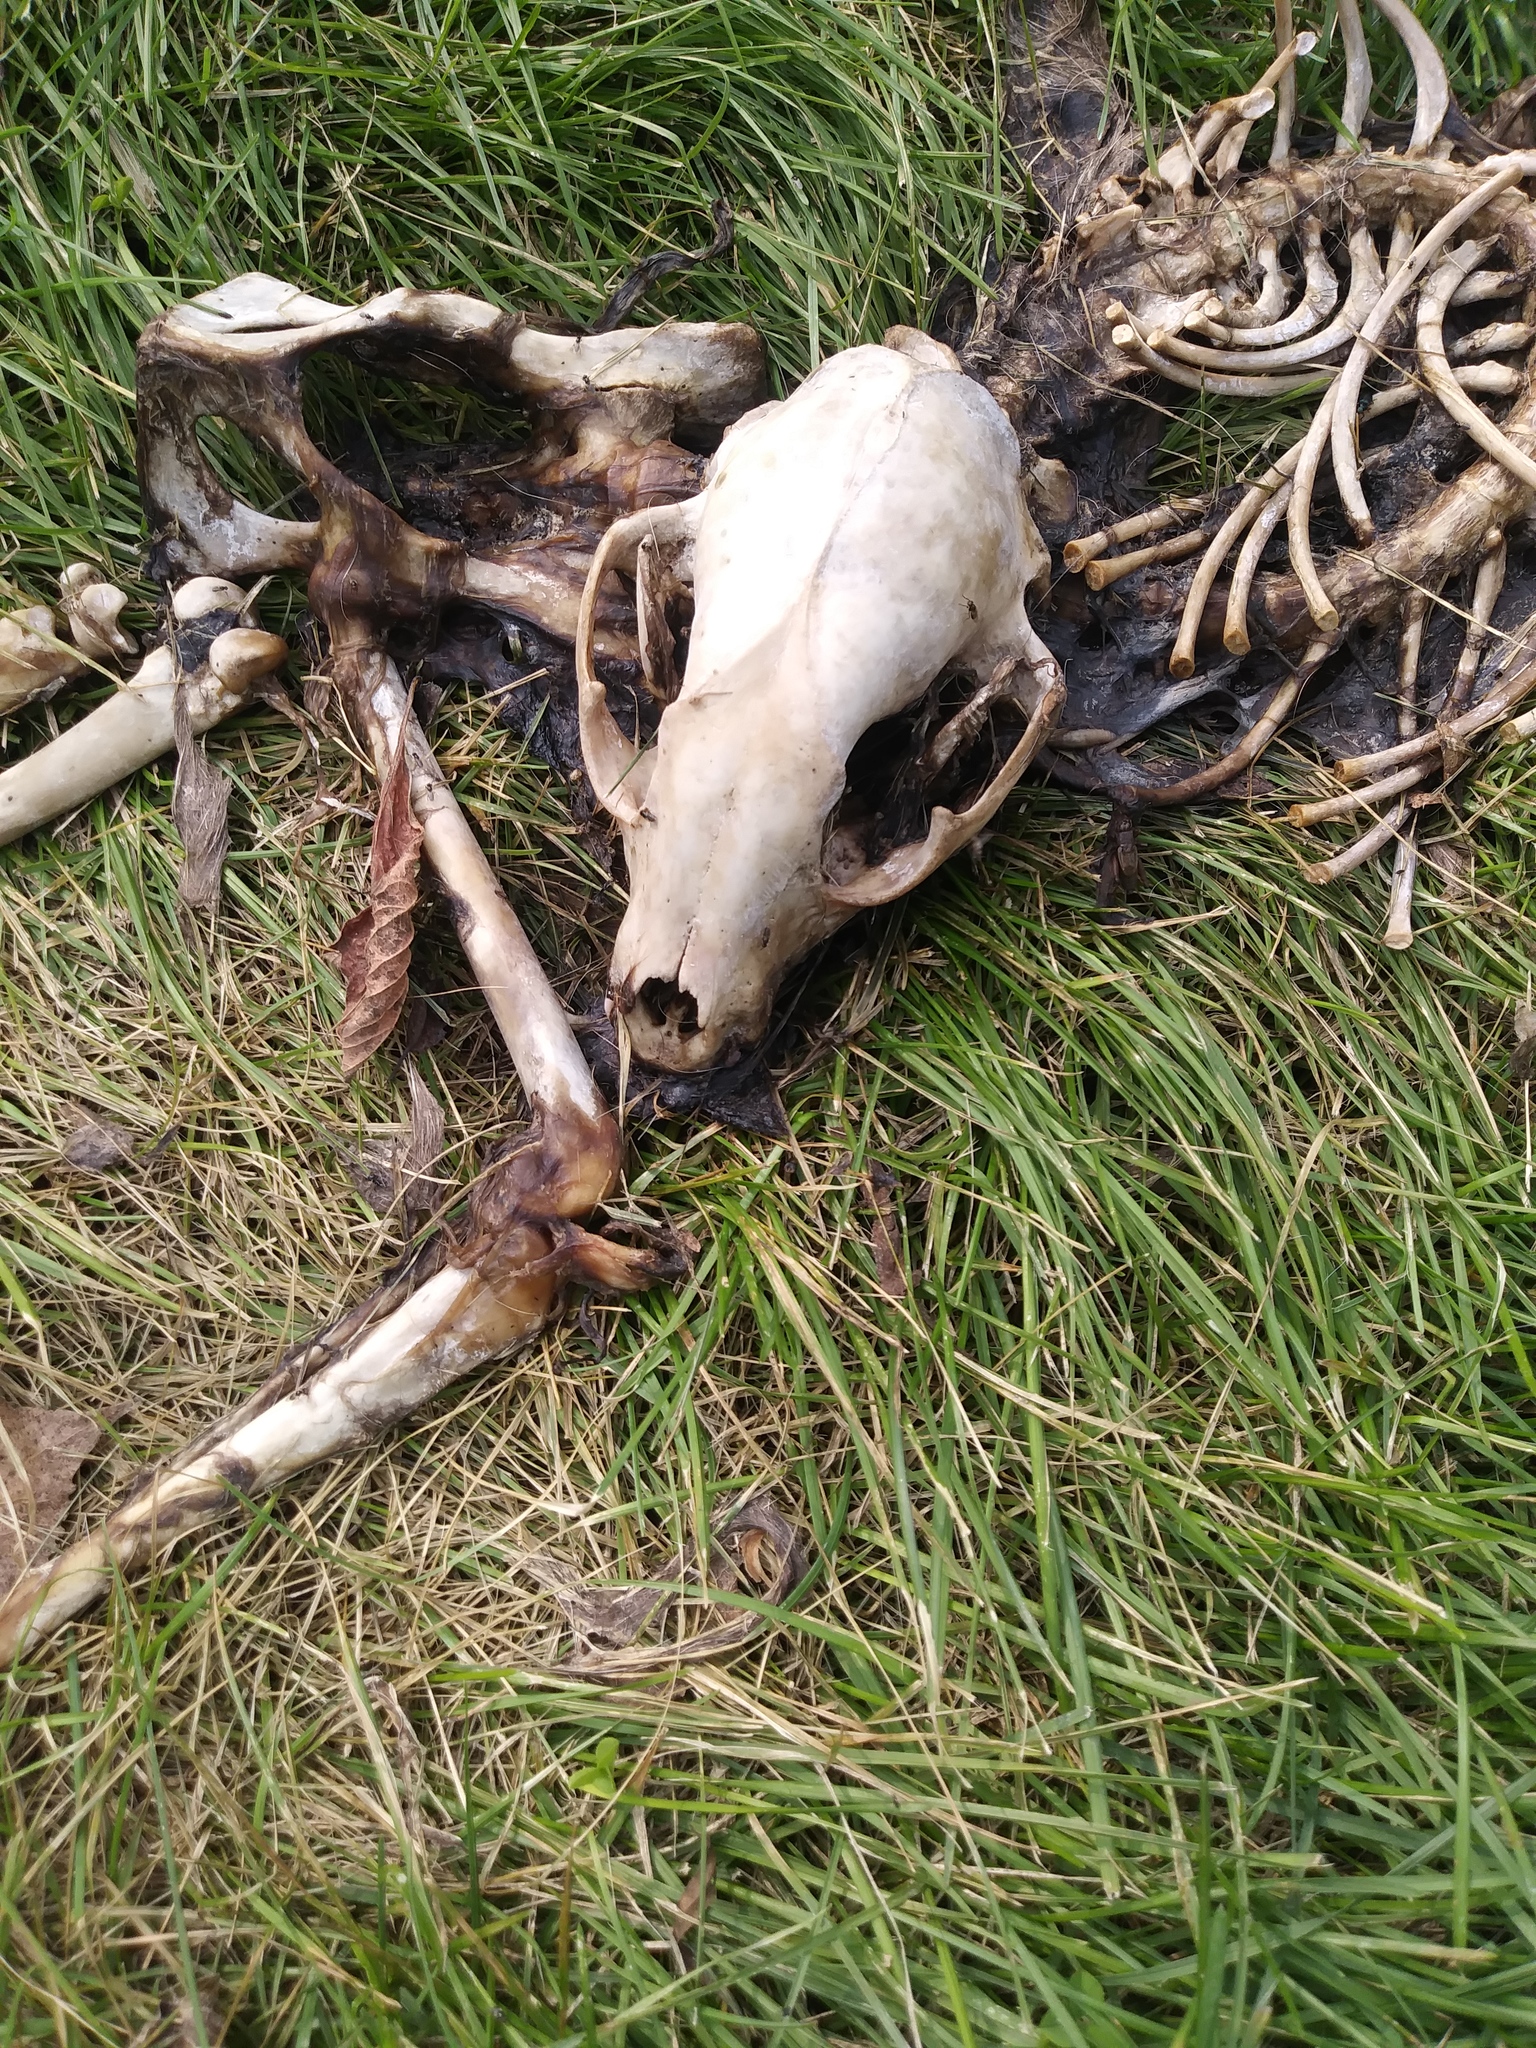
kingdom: Animalia
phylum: Chordata
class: Mammalia
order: Carnivora
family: Procyonidae
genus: Procyon
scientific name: Procyon lotor
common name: Raccoon
